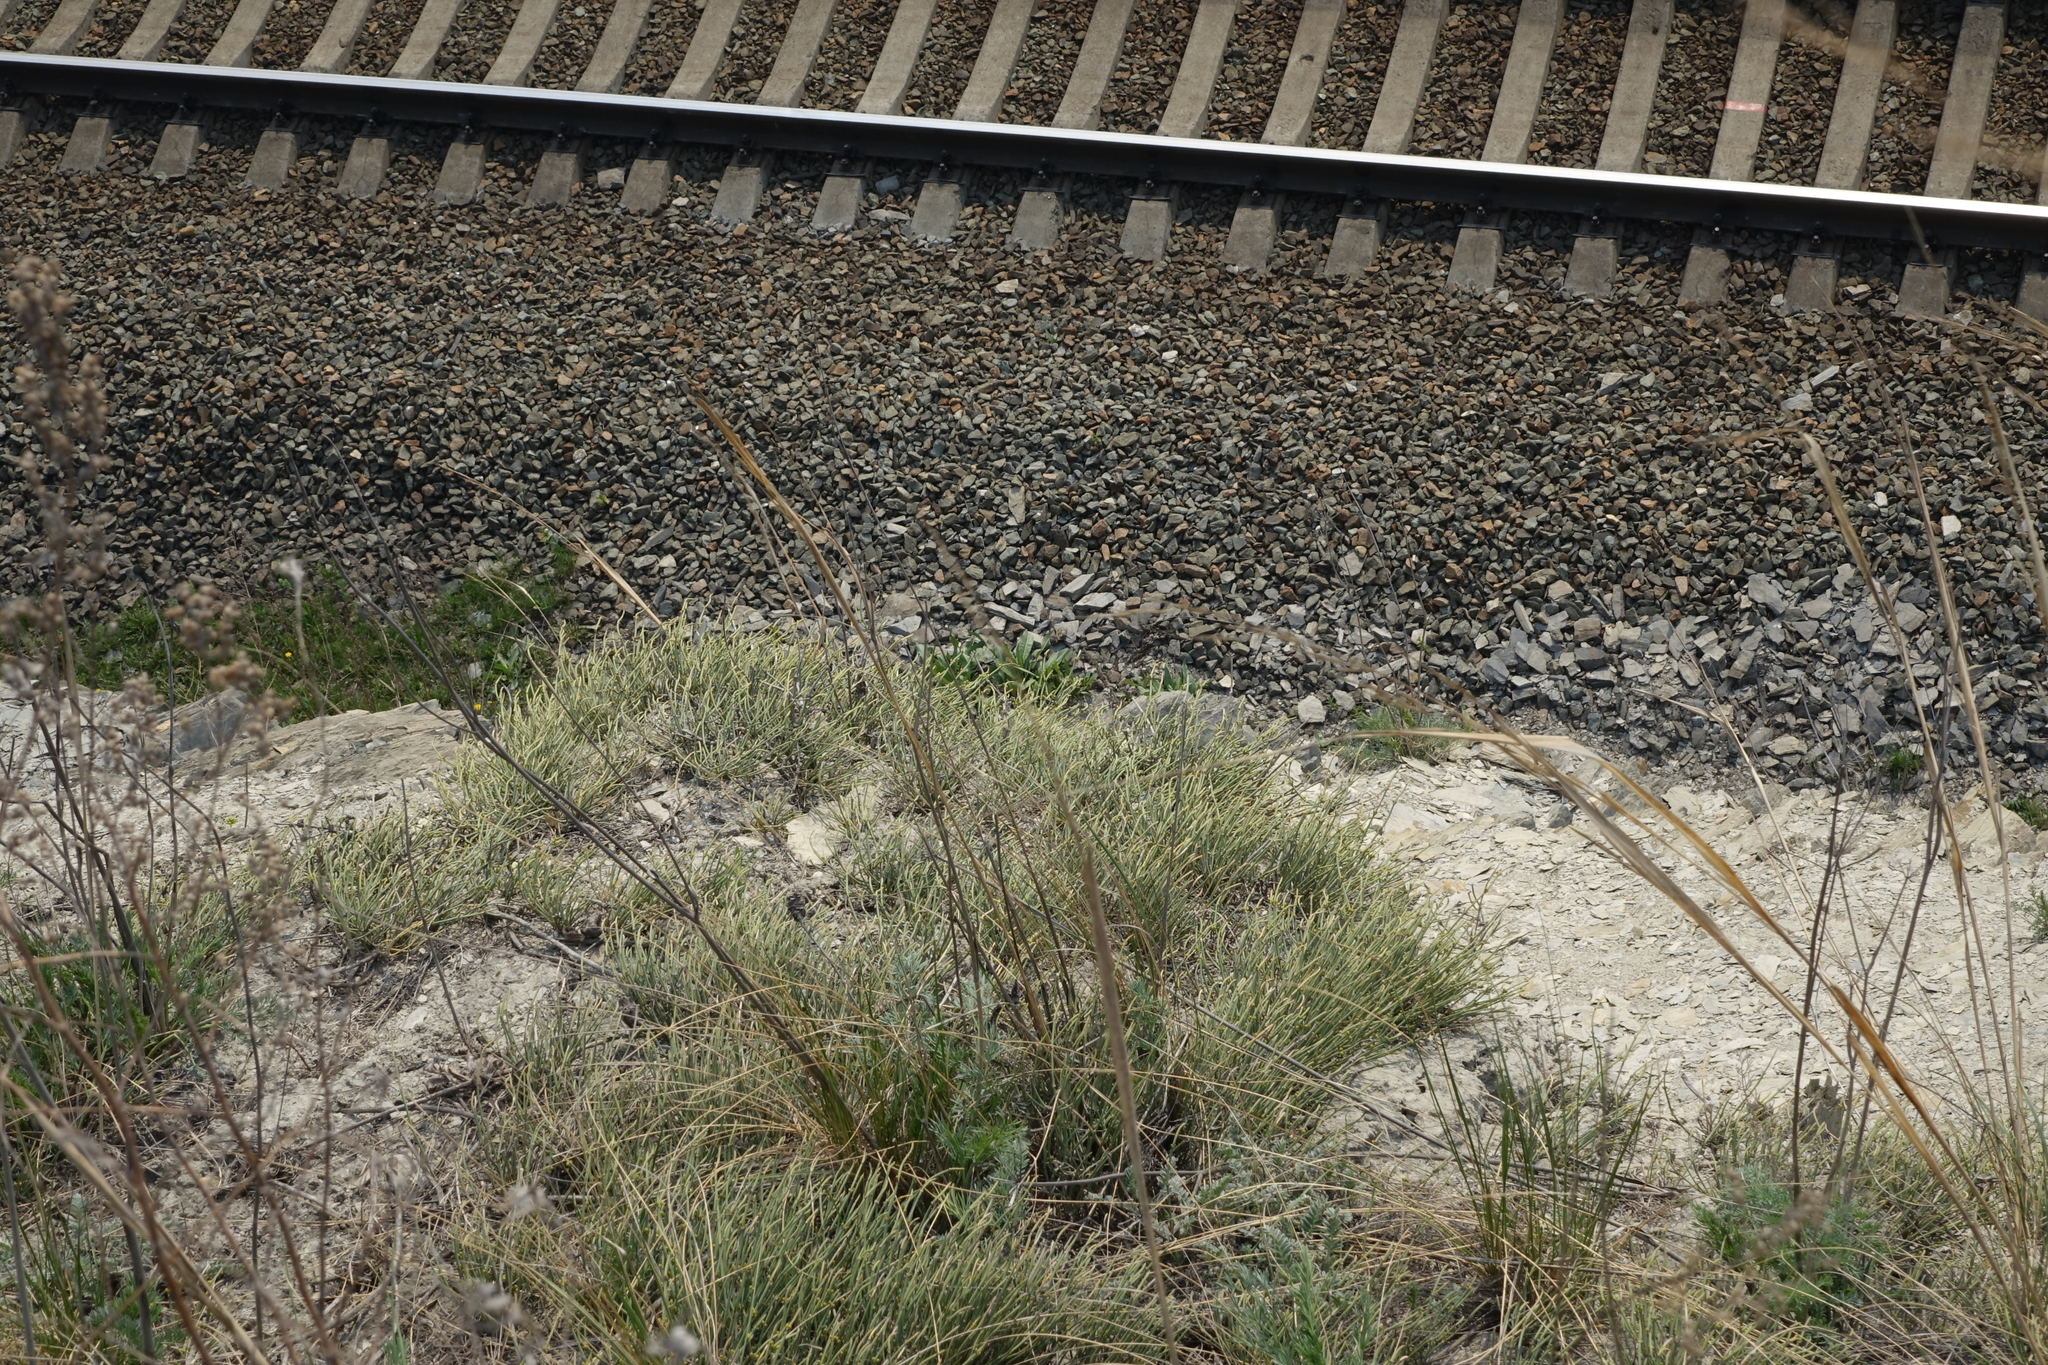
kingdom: Plantae
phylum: Tracheophyta
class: Gnetopsida
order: Ephedrales
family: Ephedraceae
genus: Ephedra
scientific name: Ephedra distachya
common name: Sea grape
